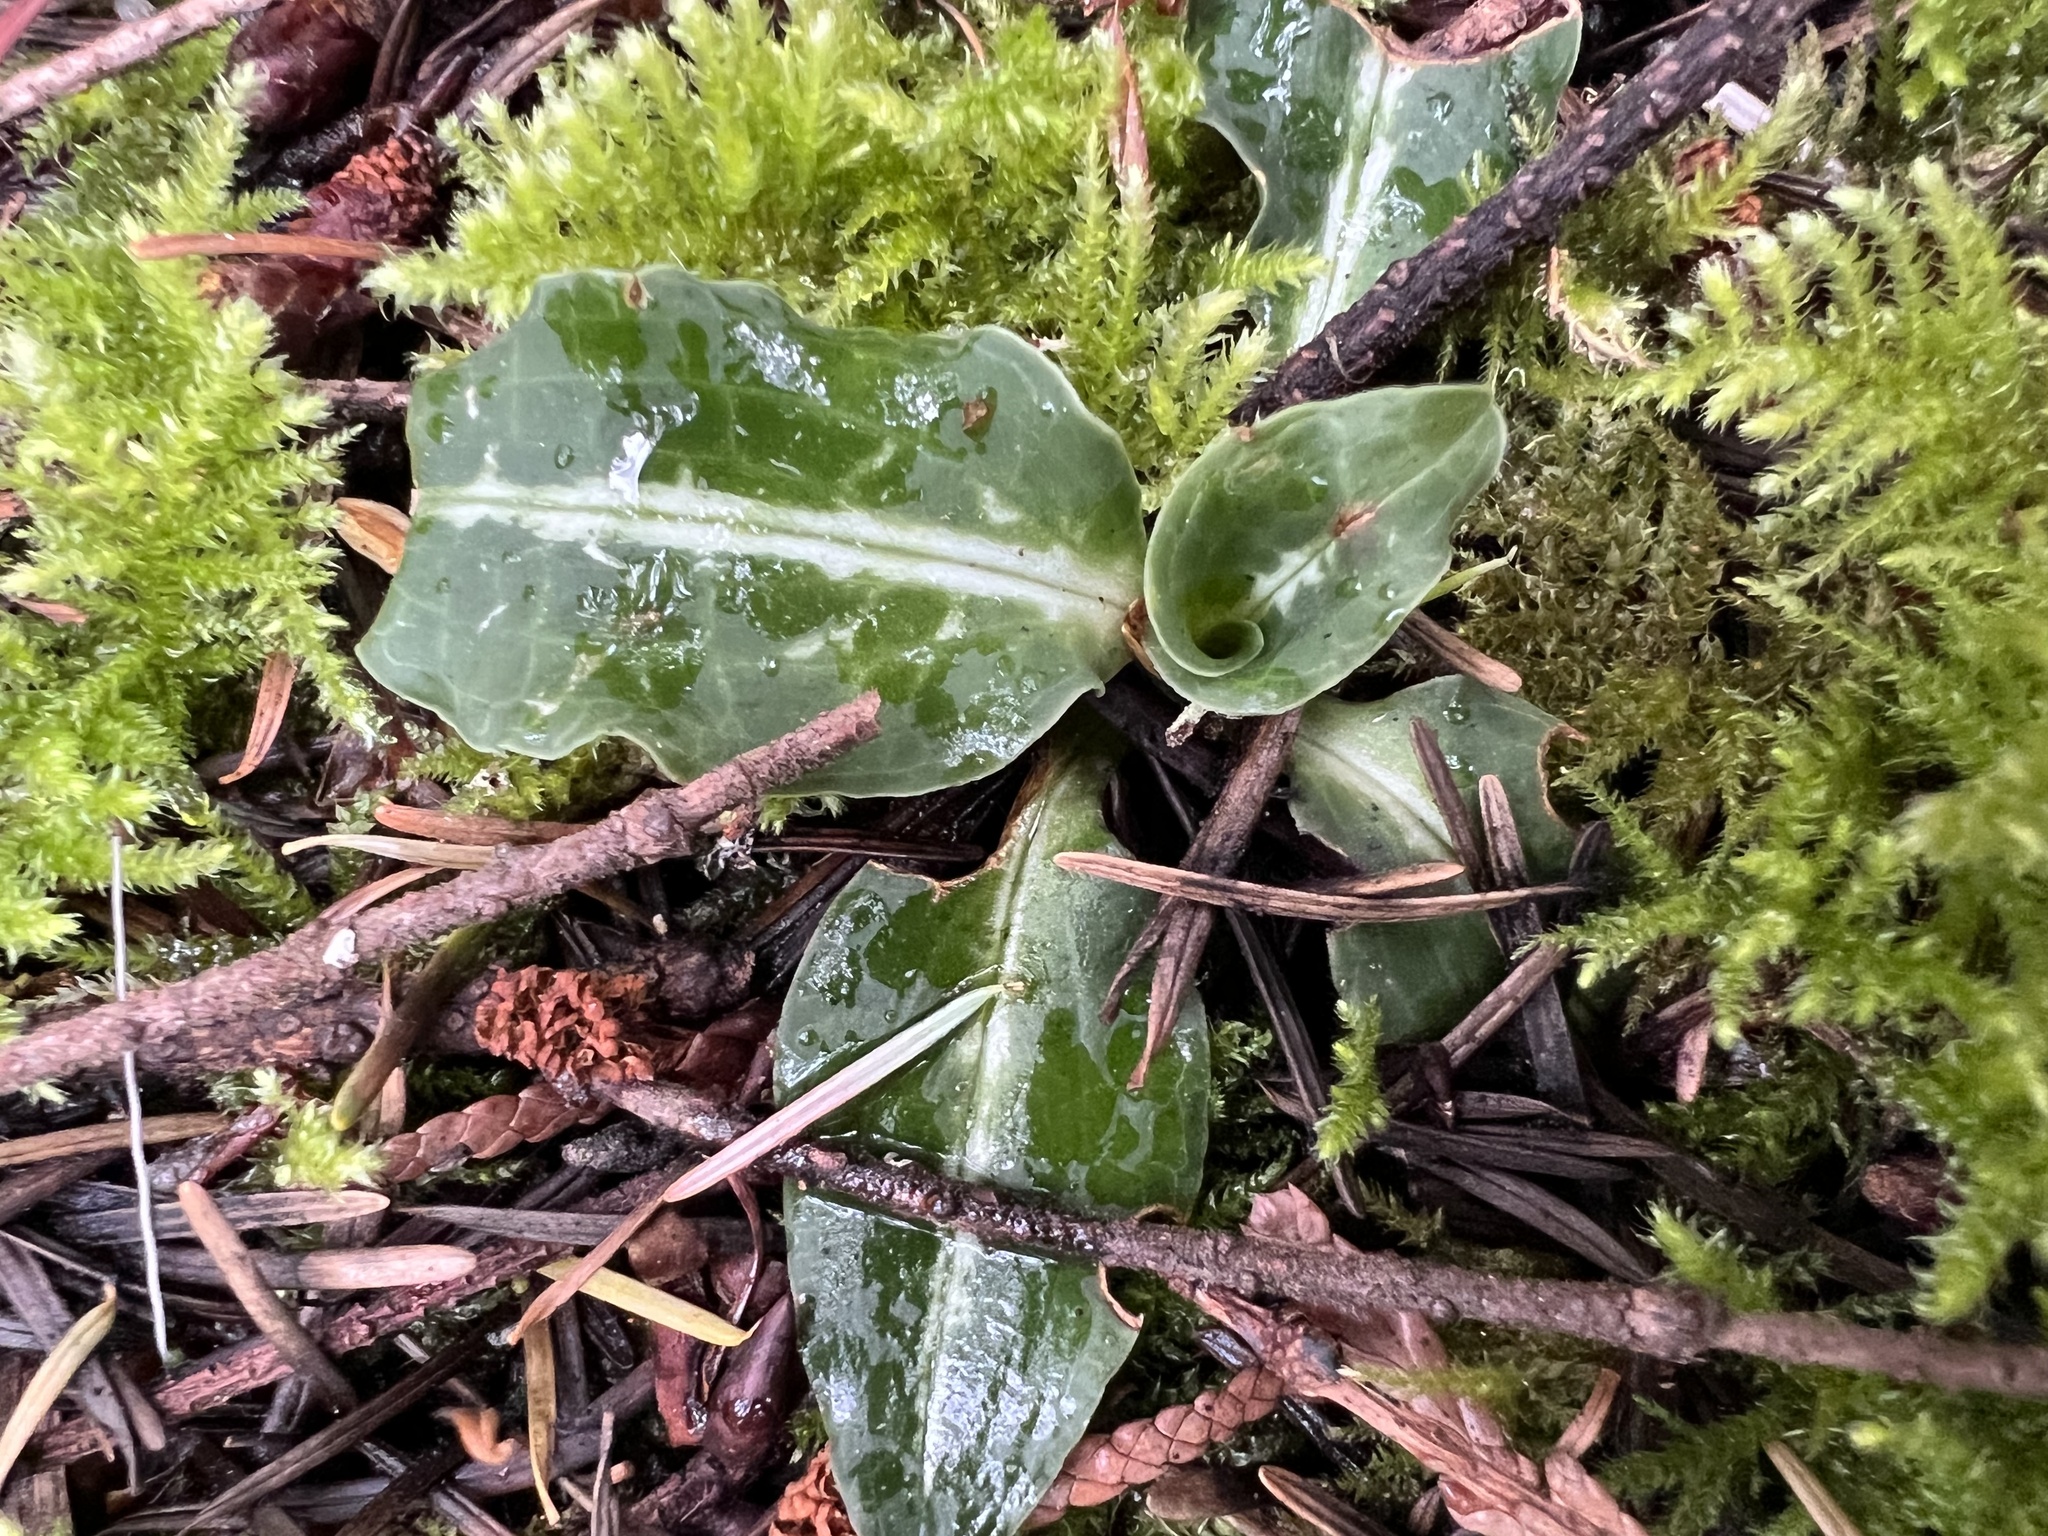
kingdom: Plantae
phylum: Tracheophyta
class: Liliopsida
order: Asparagales
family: Orchidaceae
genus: Goodyera
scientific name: Goodyera oblongifolia
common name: Giant rattlesnake-plantain
